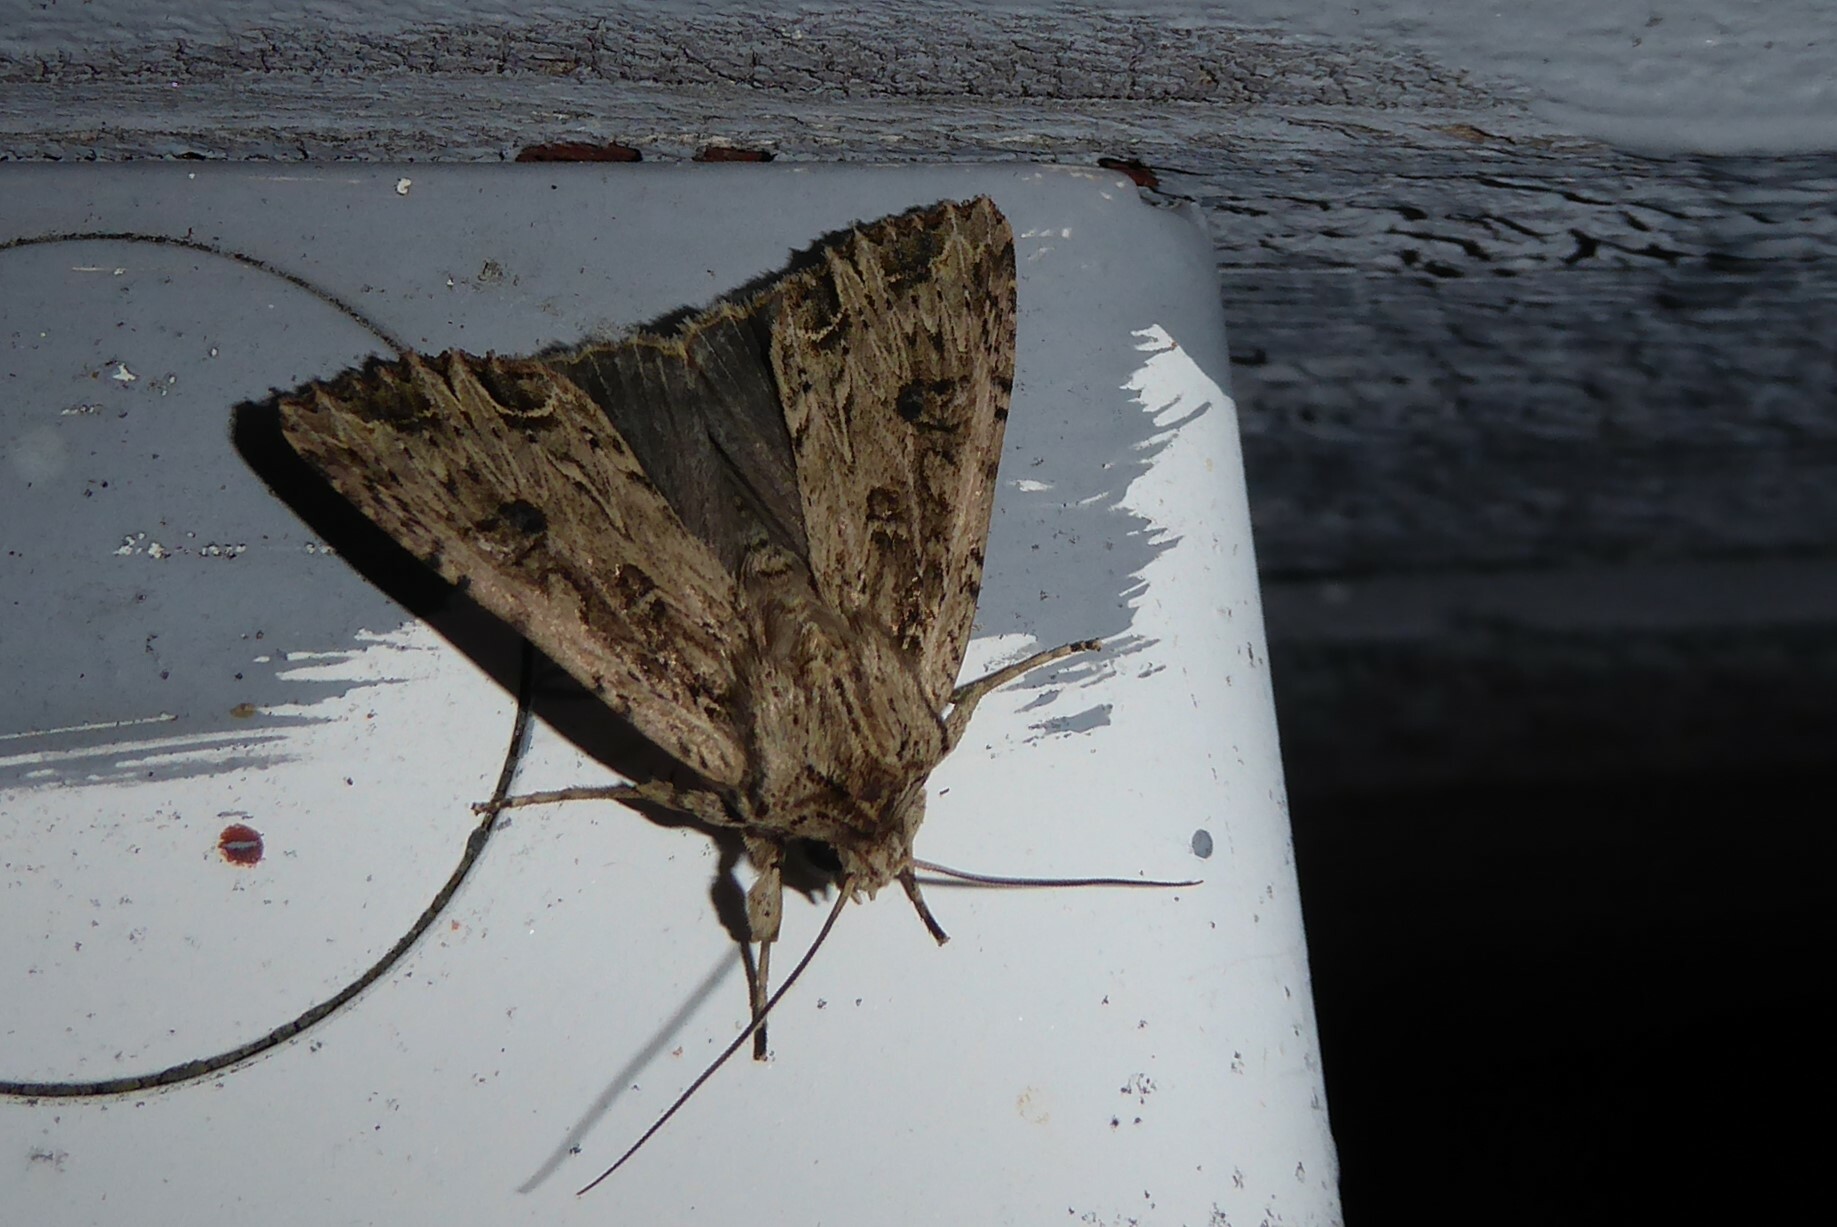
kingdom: Animalia
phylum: Arthropoda
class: Insecta
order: Lepidoptera
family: Noctuidae
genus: Ichneutica
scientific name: Ichneutica lignana
